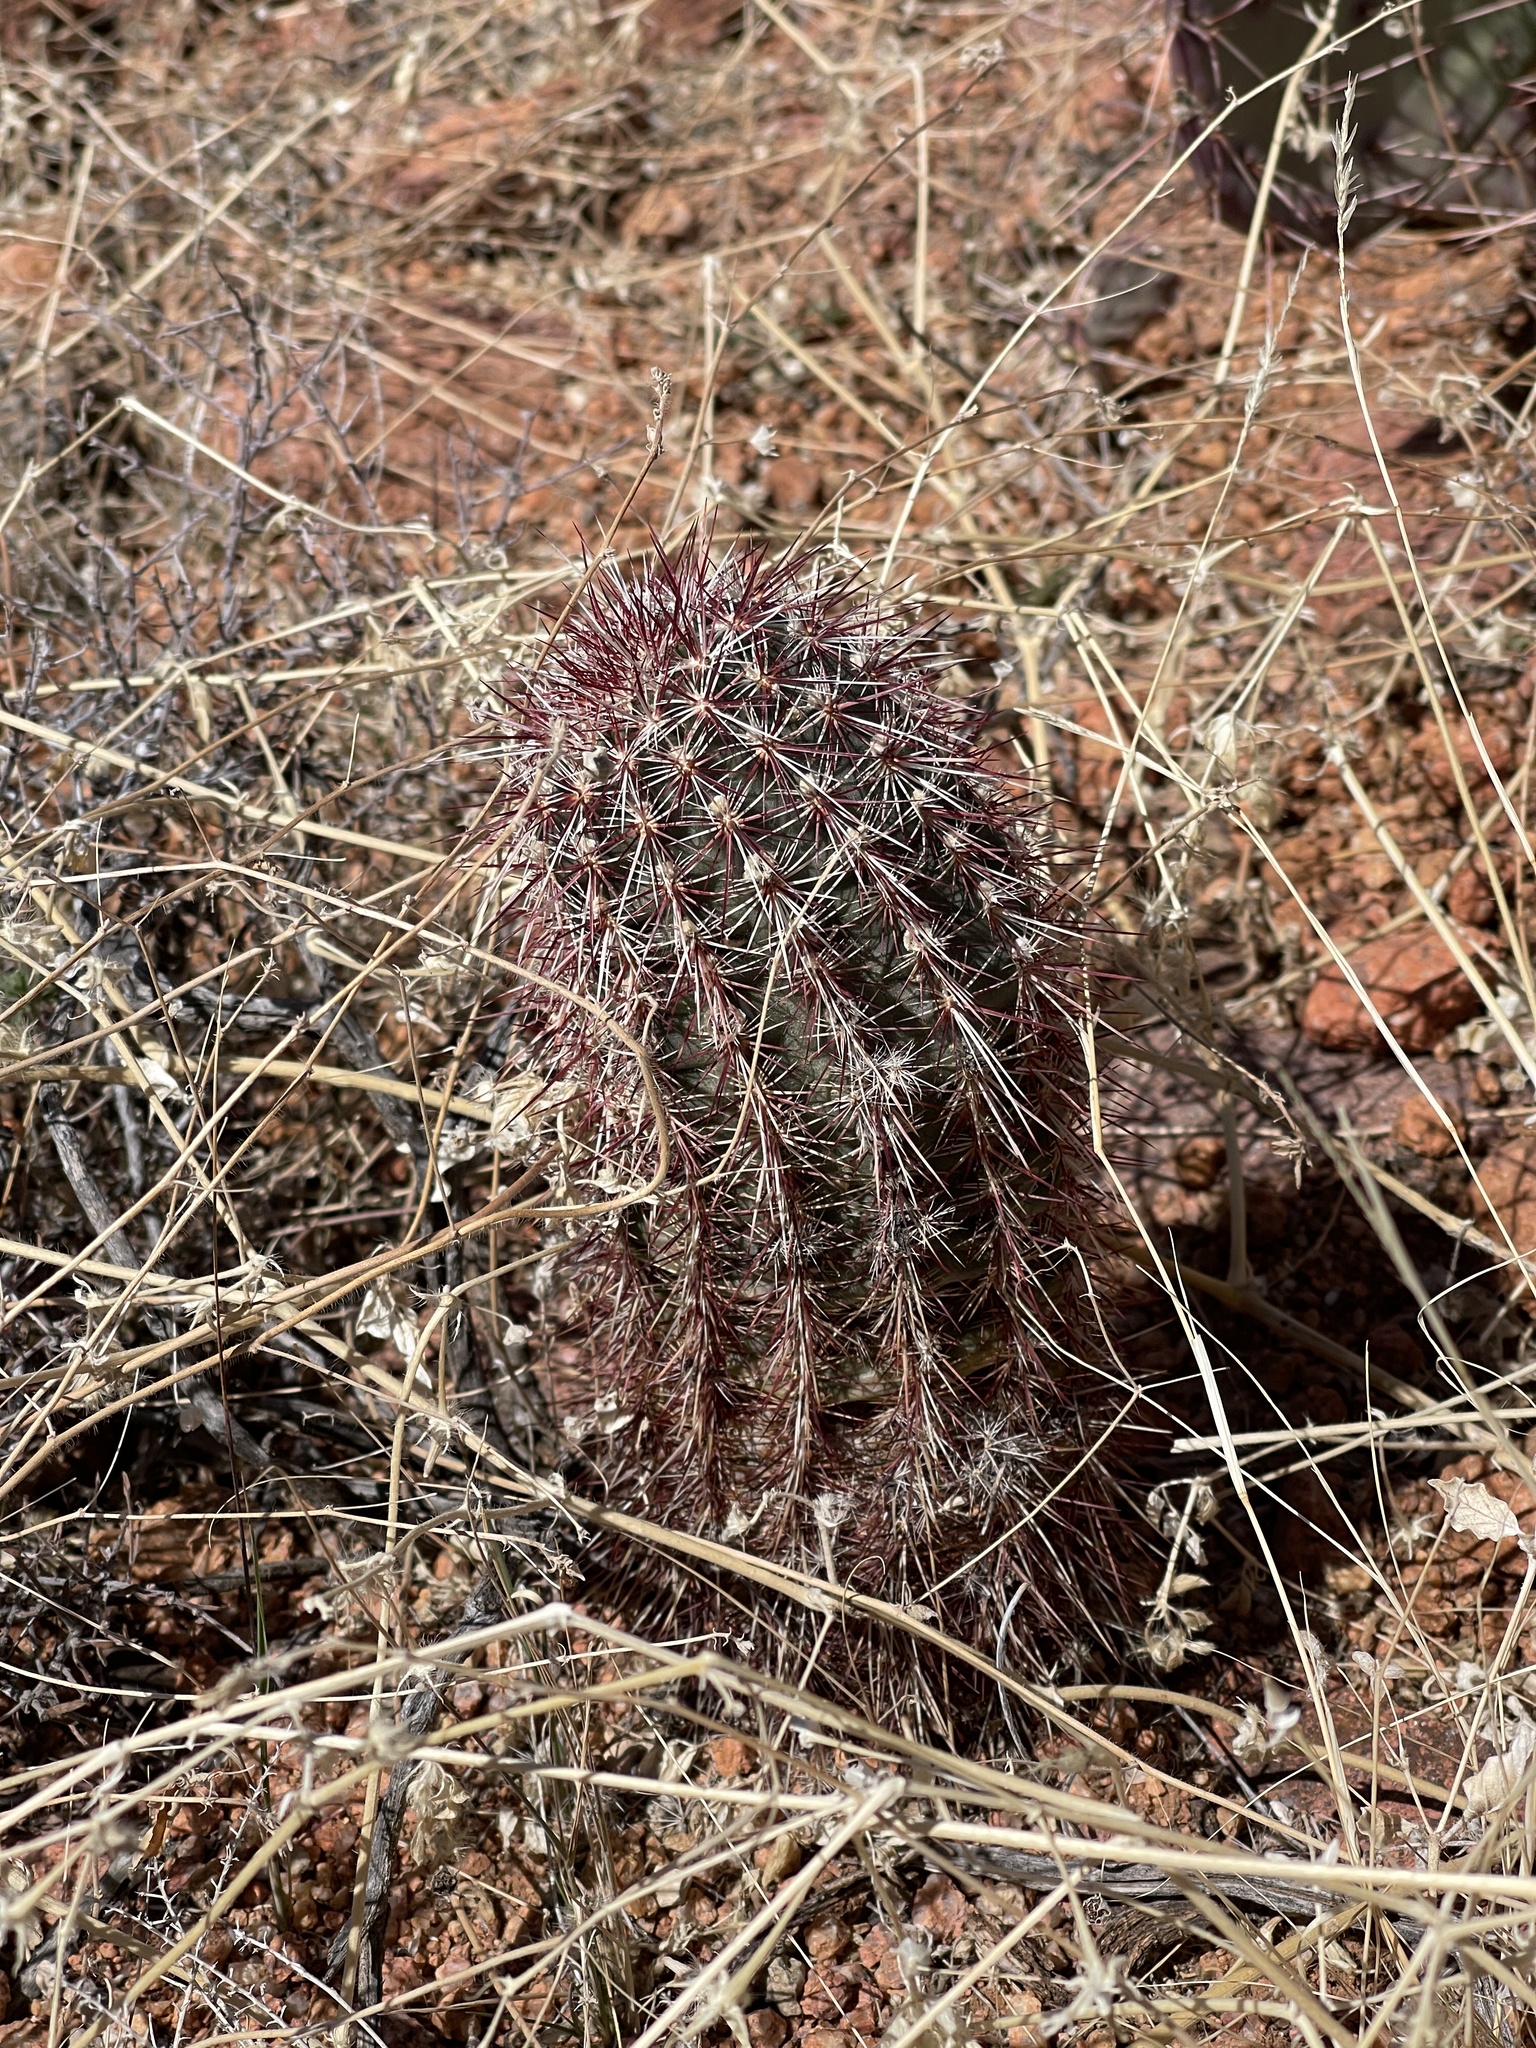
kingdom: Plantae
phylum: Tracheophyta
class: Magnoliopsida
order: Caryophyllales
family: Cactaceae
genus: Echinocereus
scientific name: Echinocereus viridiflorus
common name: Nylon hedgehog cactus
